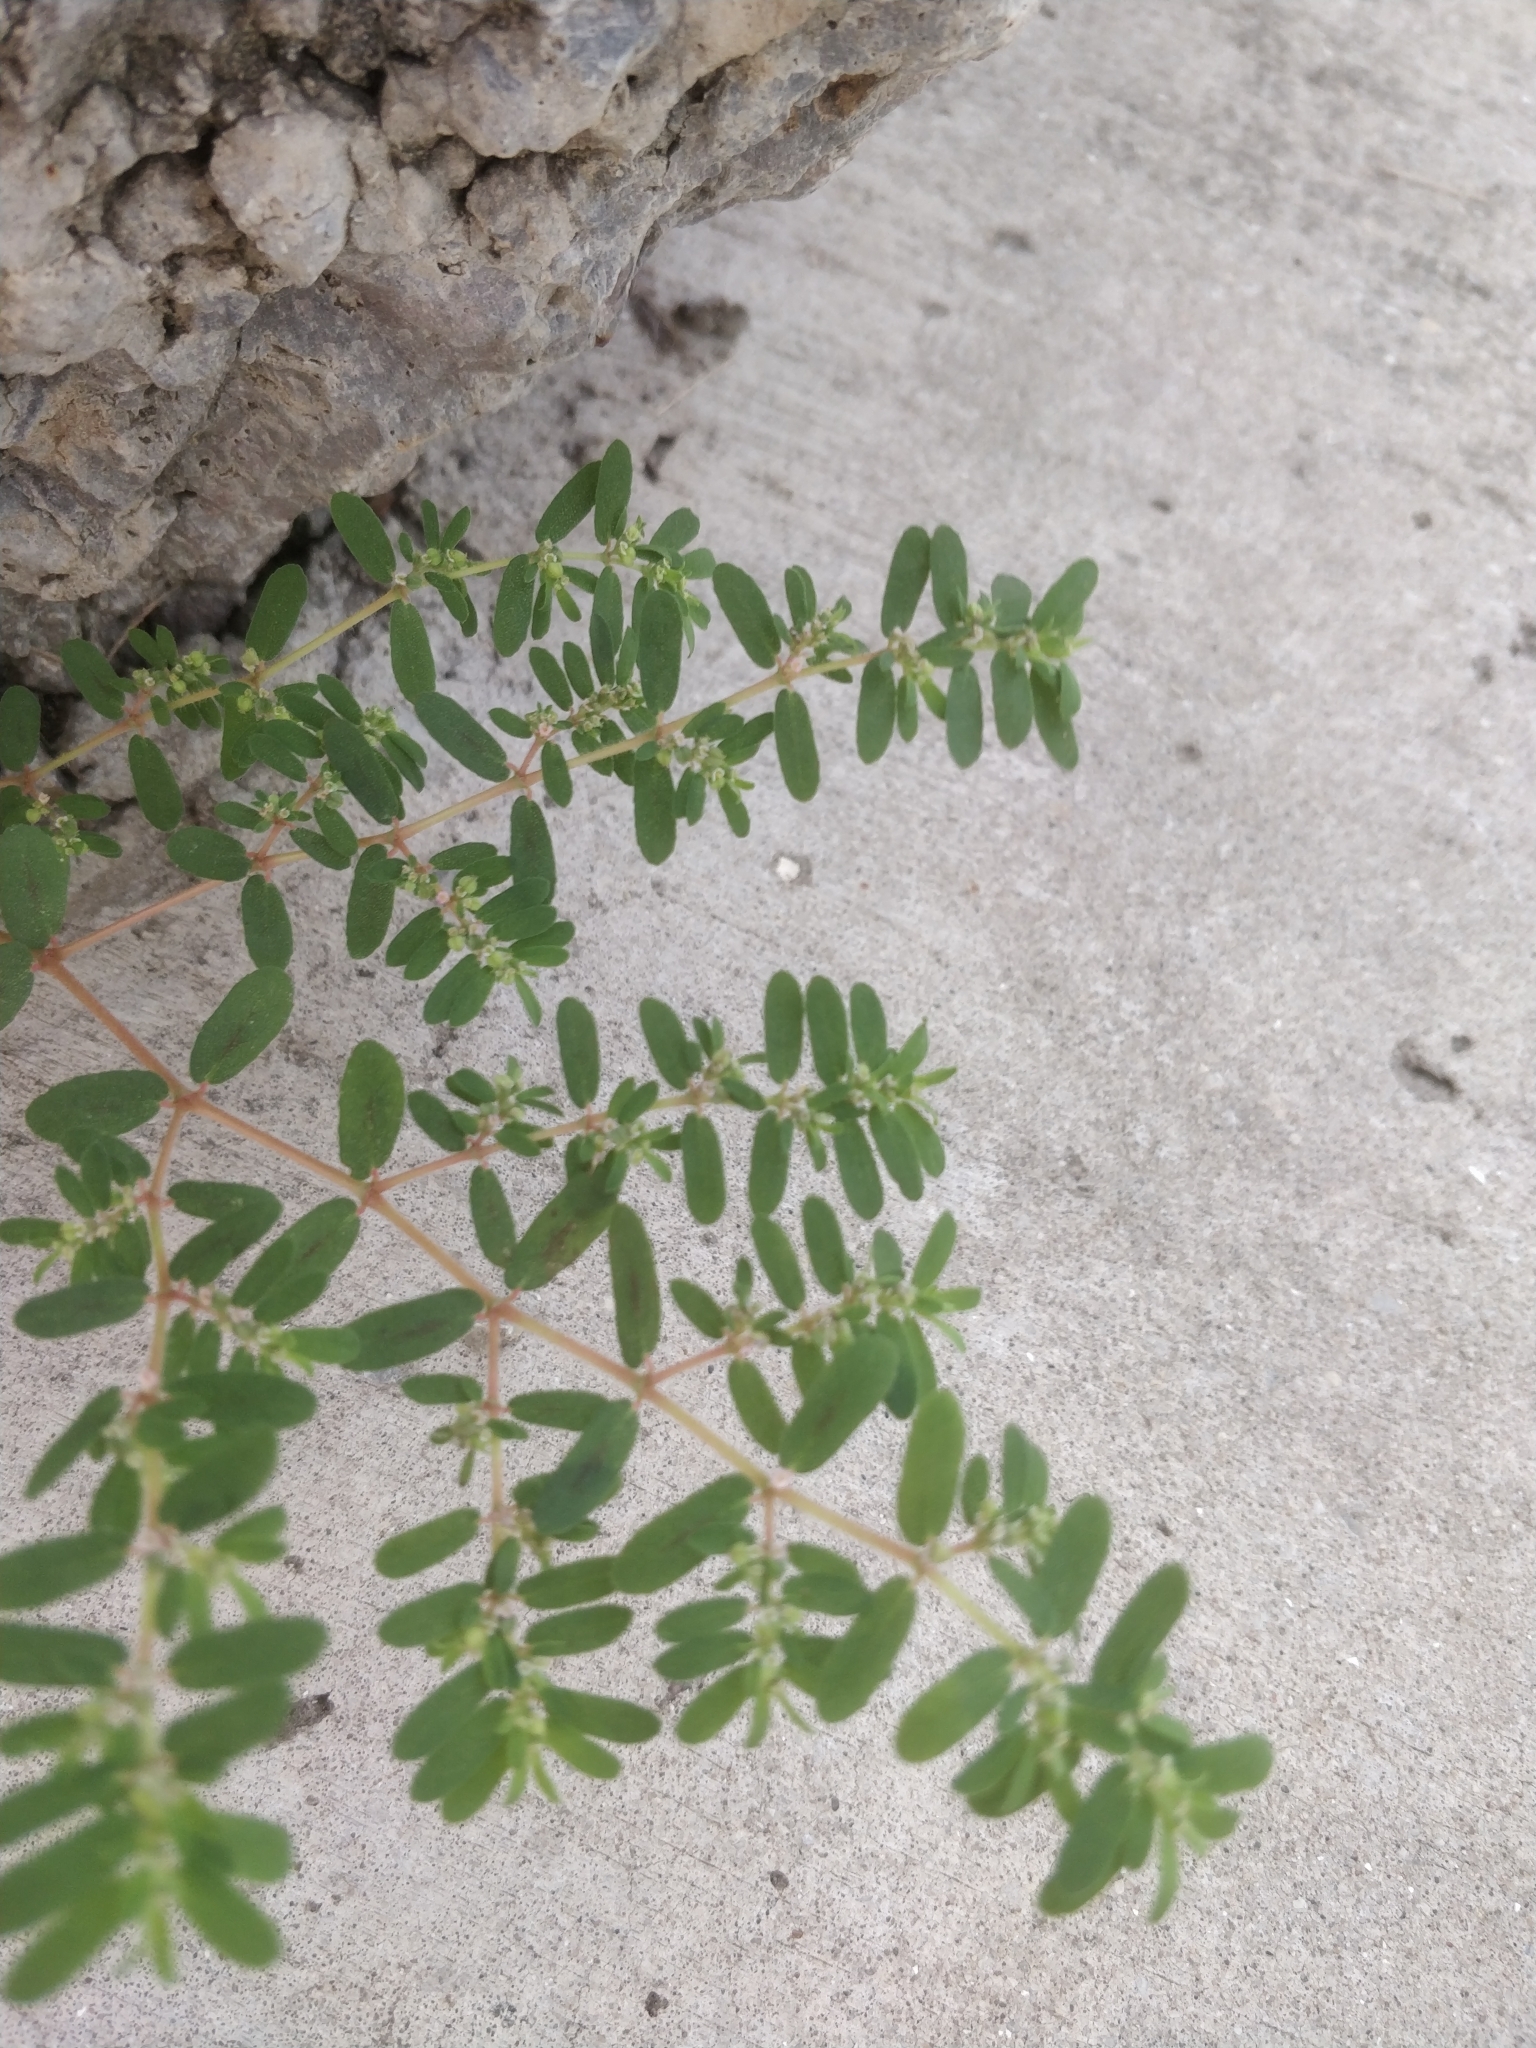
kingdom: Plantae
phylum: Tracheophyta
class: Magnoliopsida
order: Malpighiales
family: Euphorbiaceae
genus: Euphorbia
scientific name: Euphorbia maculata
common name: Spotted spurge
